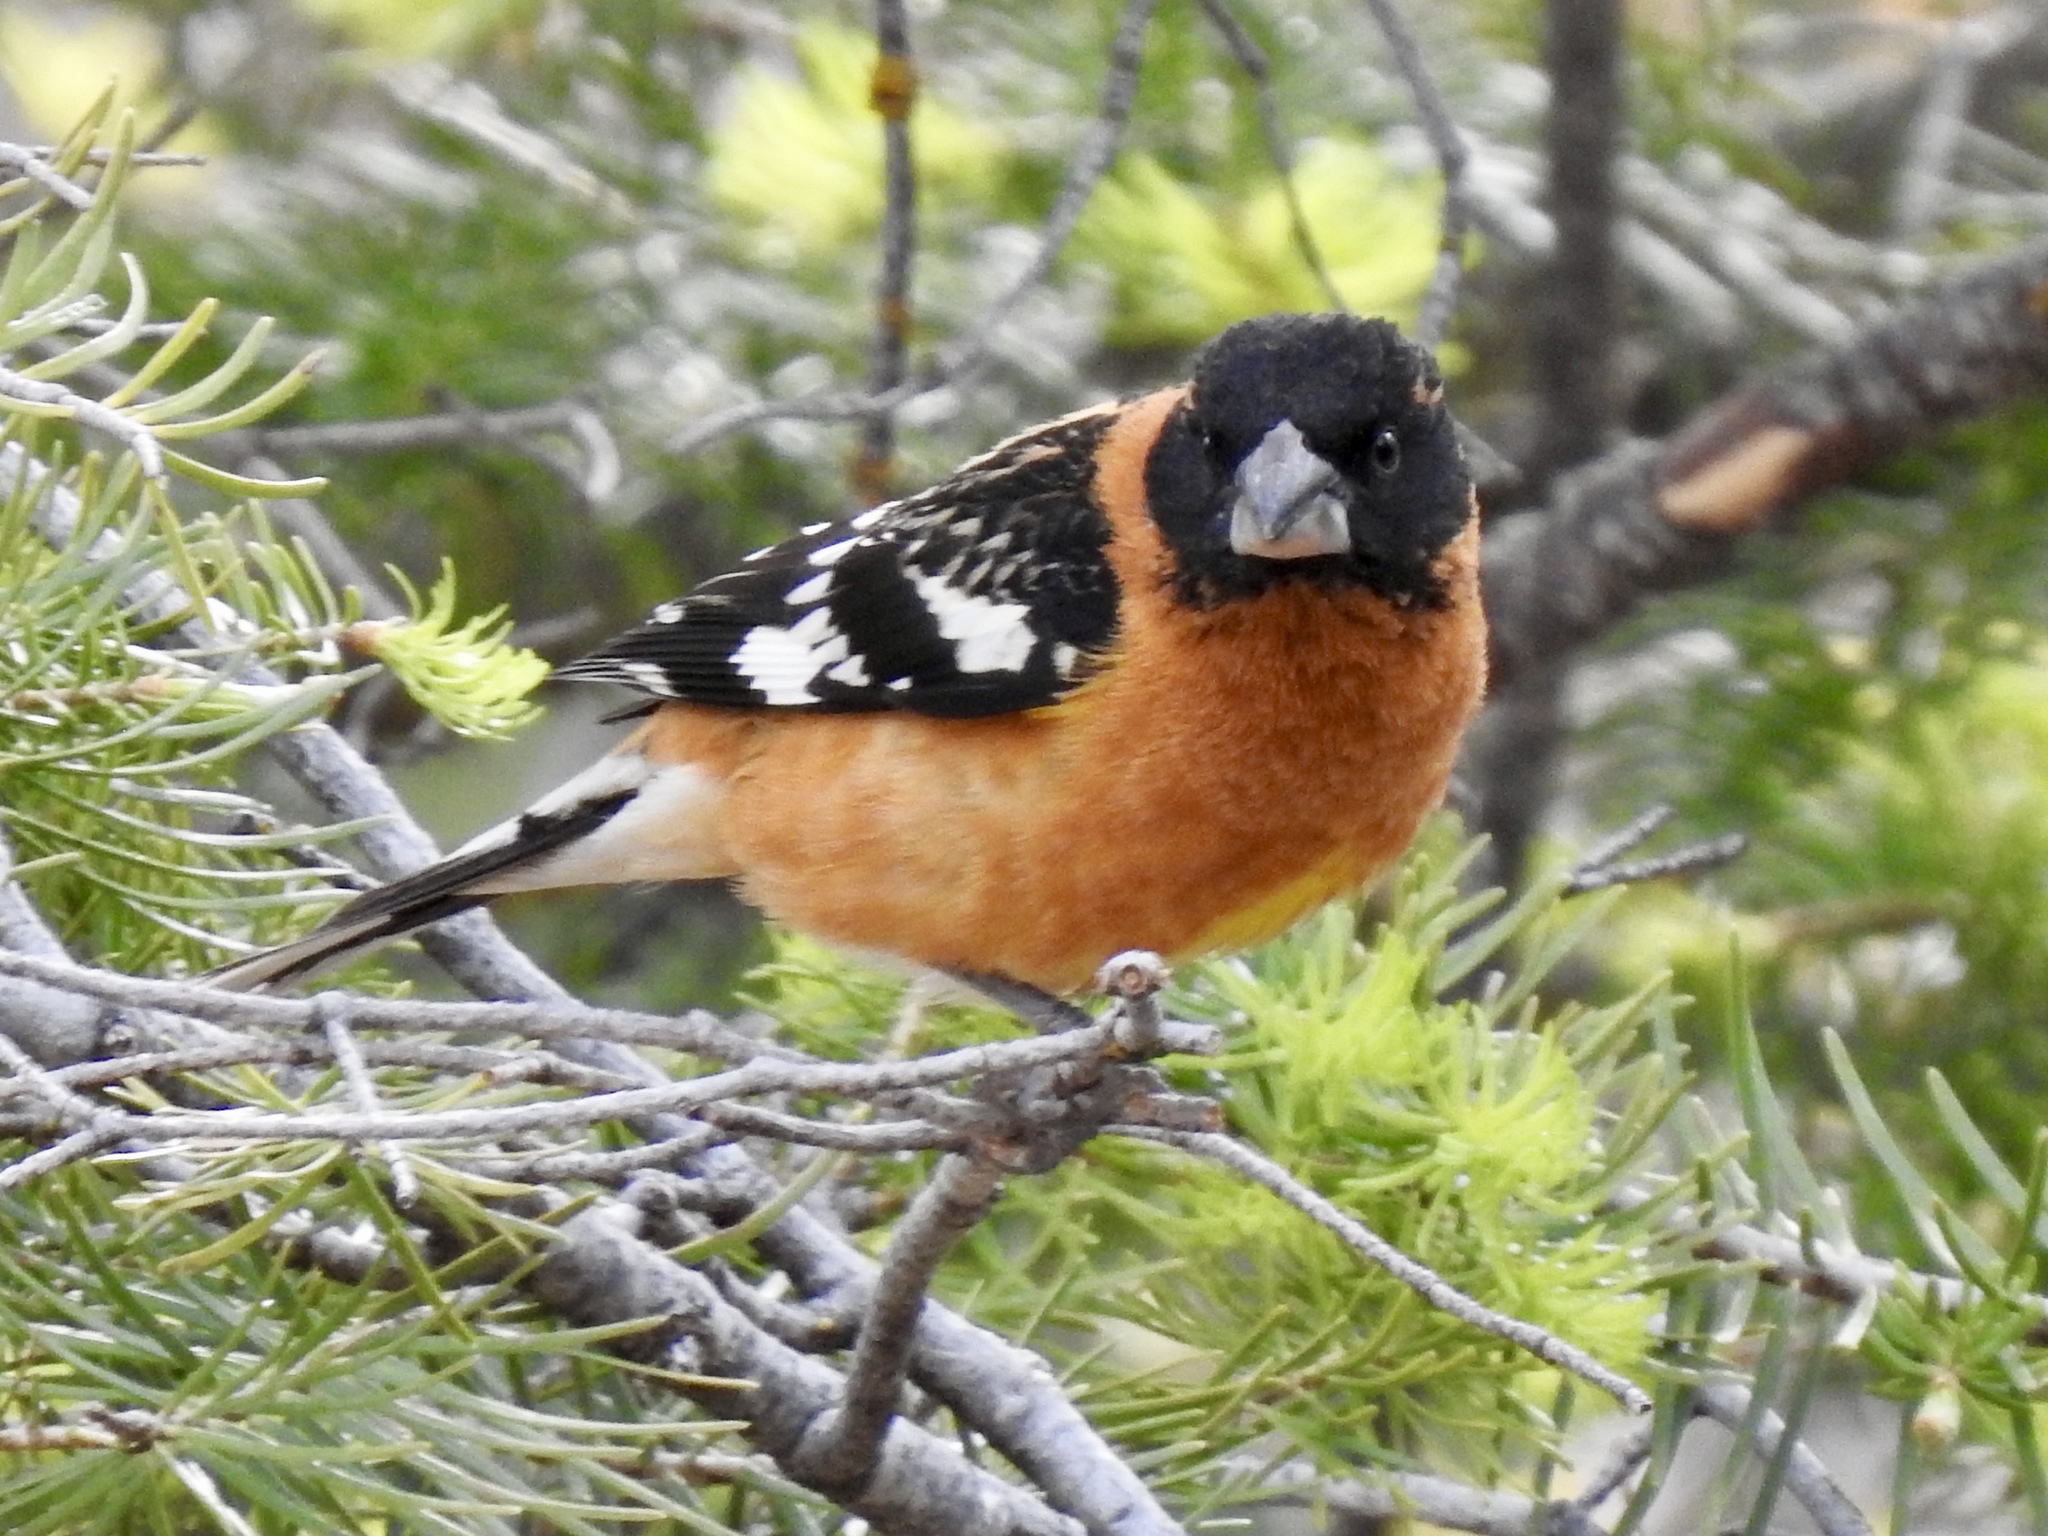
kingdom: Animalia
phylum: Chordata
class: Aves
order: Passeriformes
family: Cardinalidae
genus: Pheucticus
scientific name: Pheucticus melanocephalus
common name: Black-headed grosbeak
